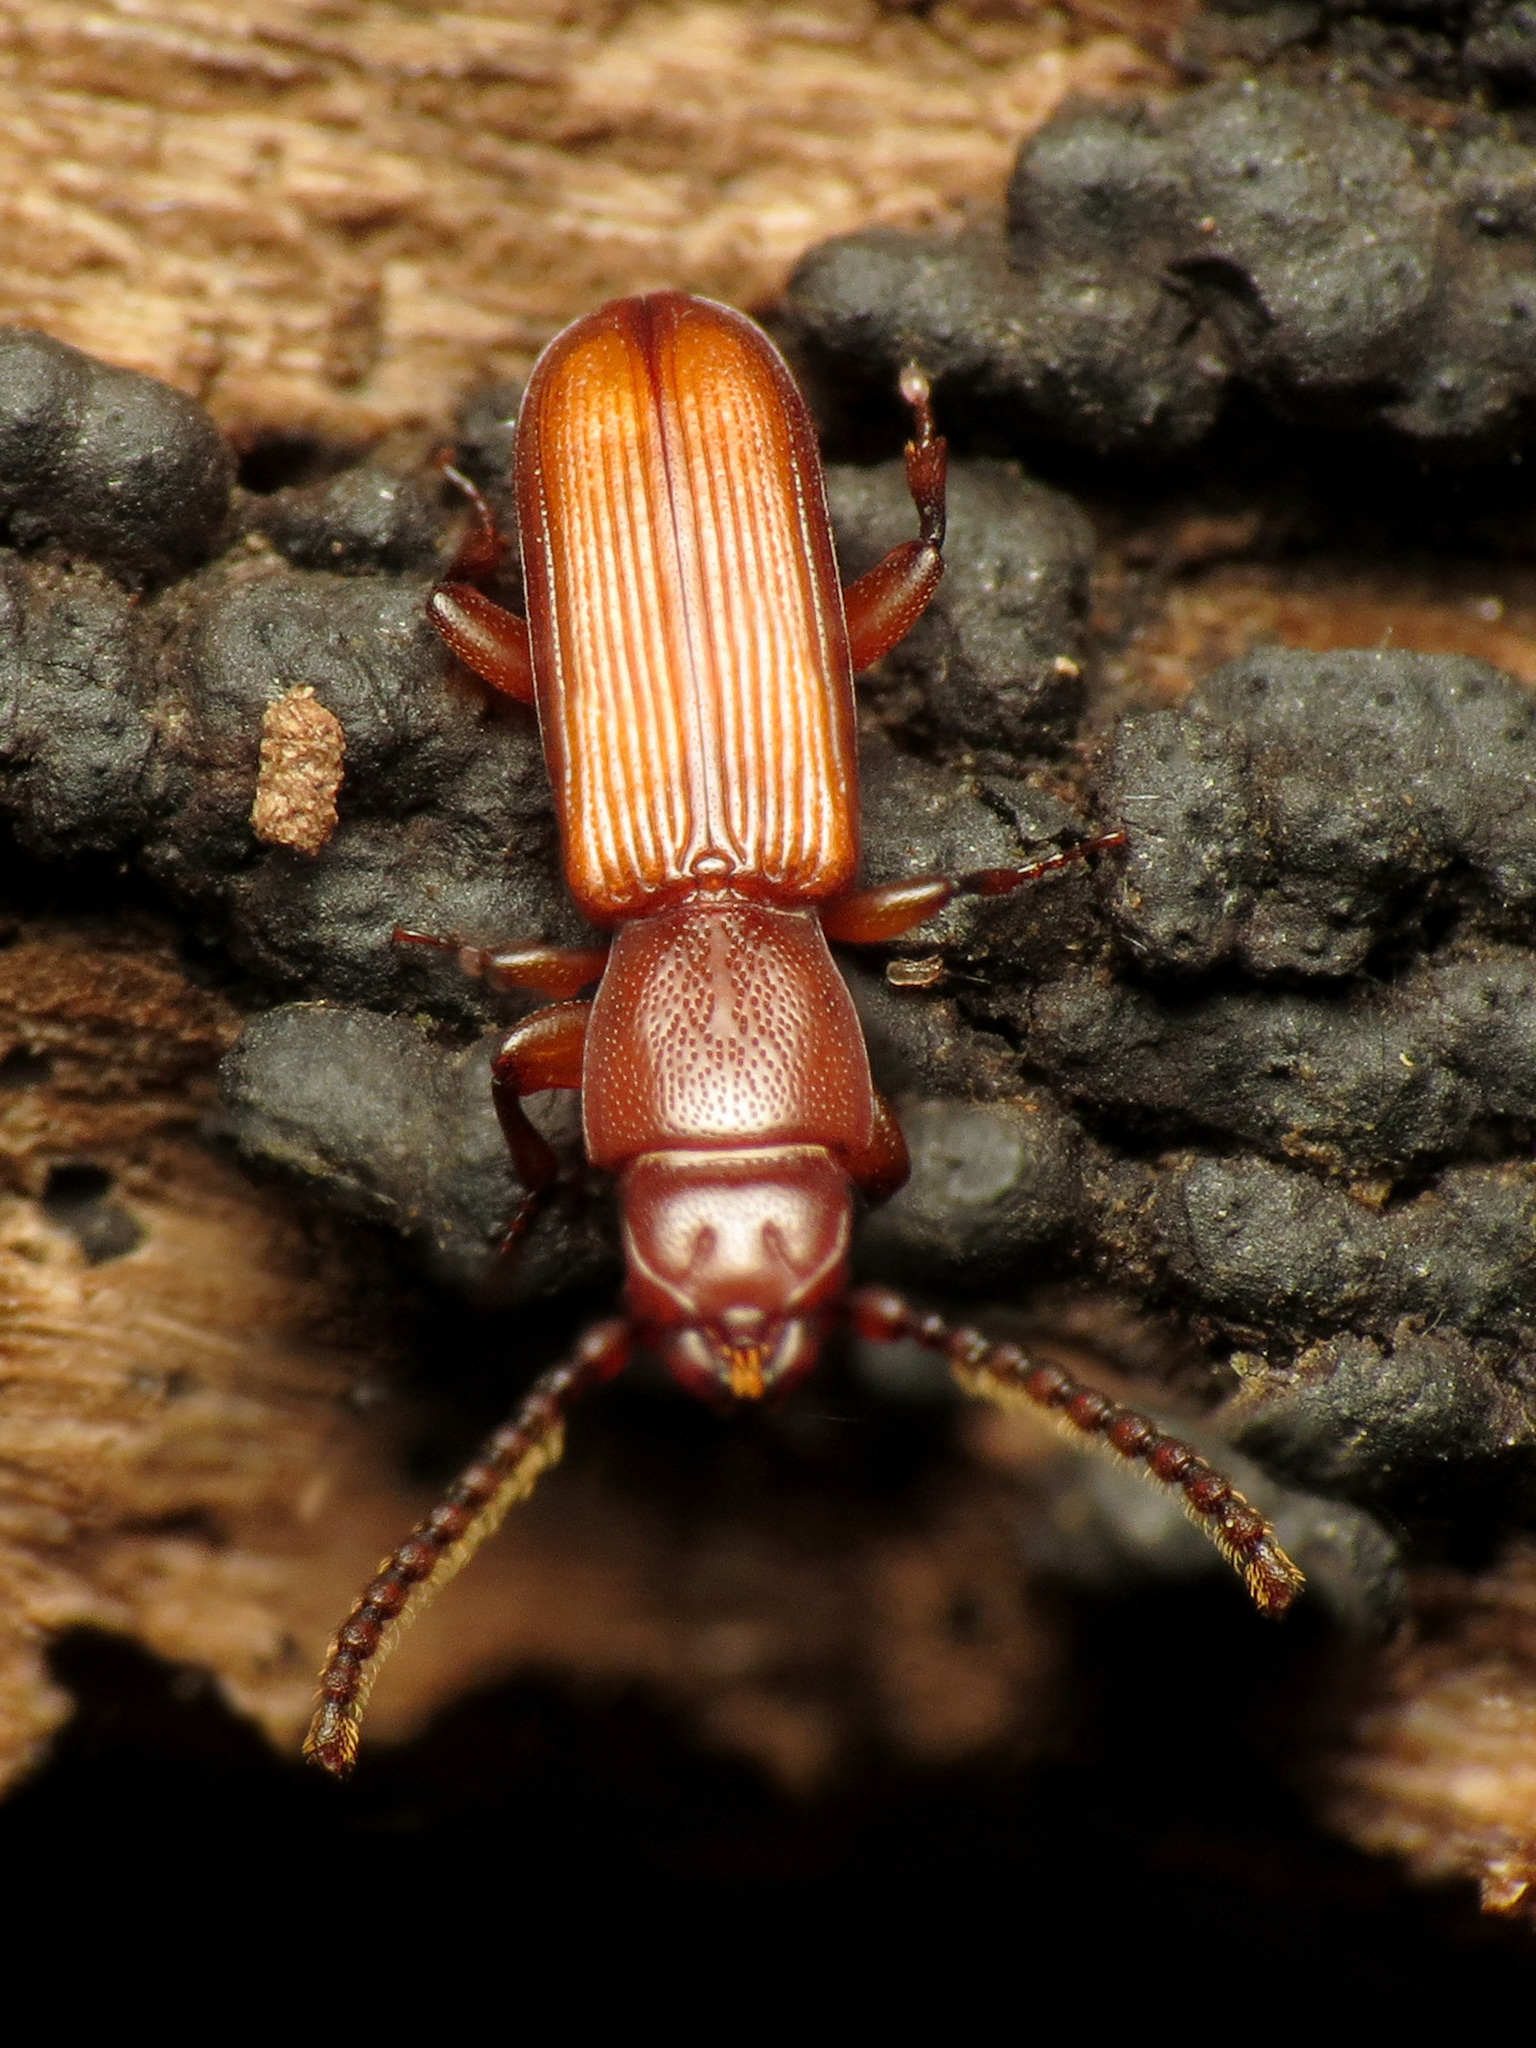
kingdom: Animalia
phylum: Arthropoda
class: Insecta
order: Coleoptera
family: Passandridae
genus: Catogenus
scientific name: Catogenus rufus
